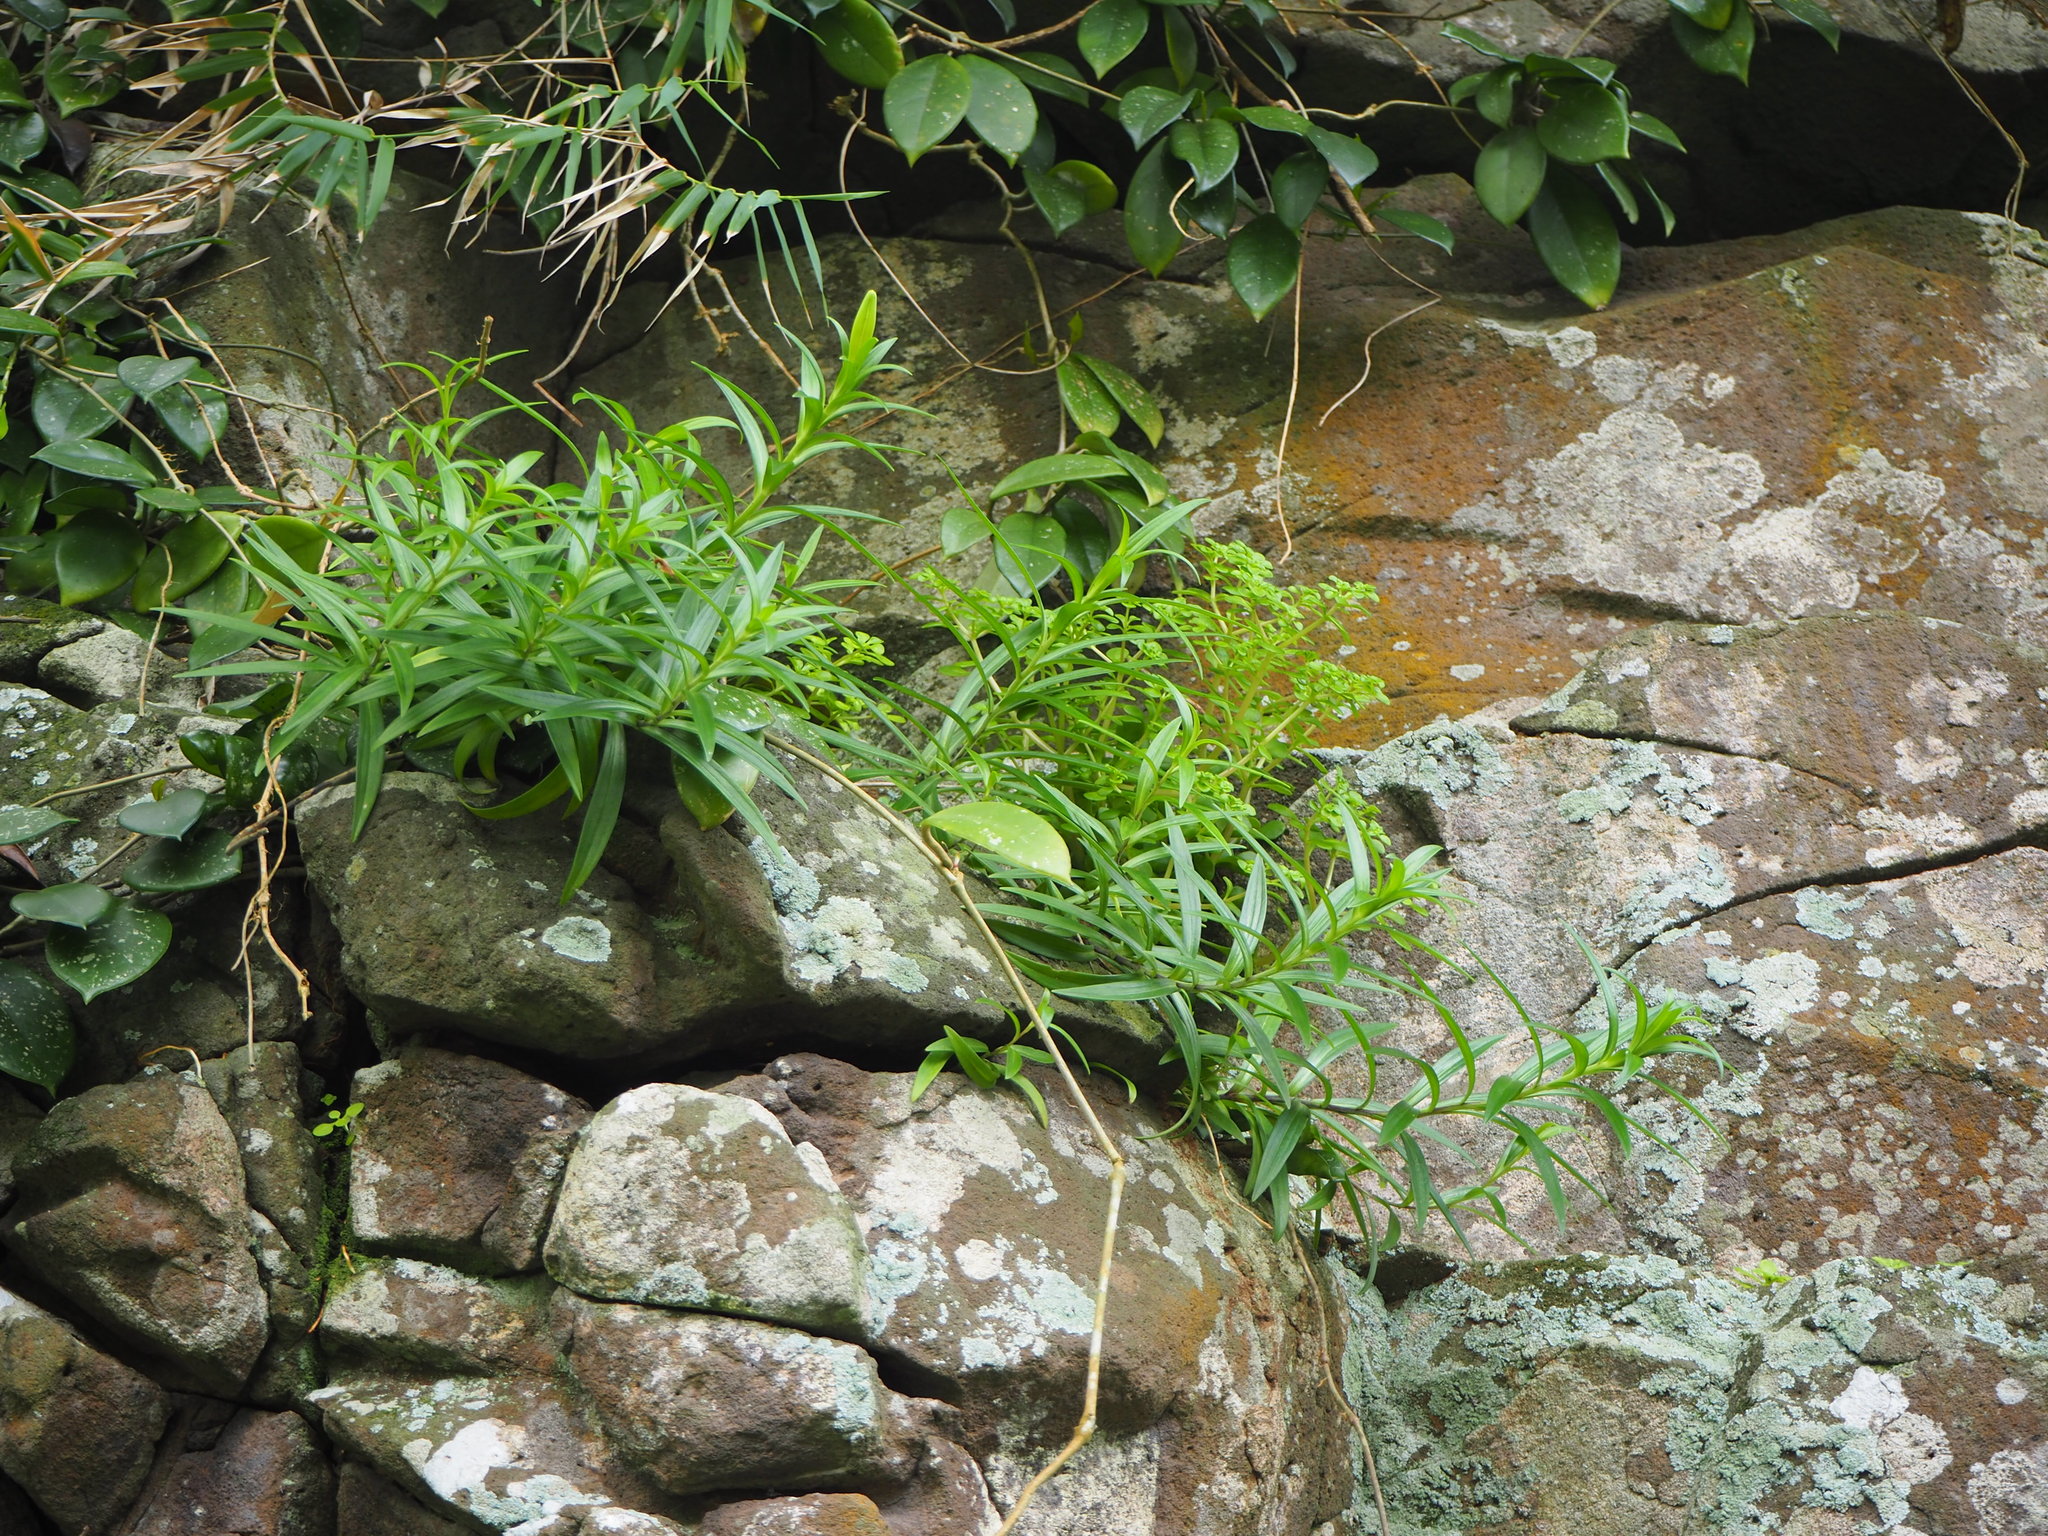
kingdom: Plantae
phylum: Tracheophyta
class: Liliopsida
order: Liliales
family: Liliaceae
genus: Lilium
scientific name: Lilium longiflorum
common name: Easter lily
